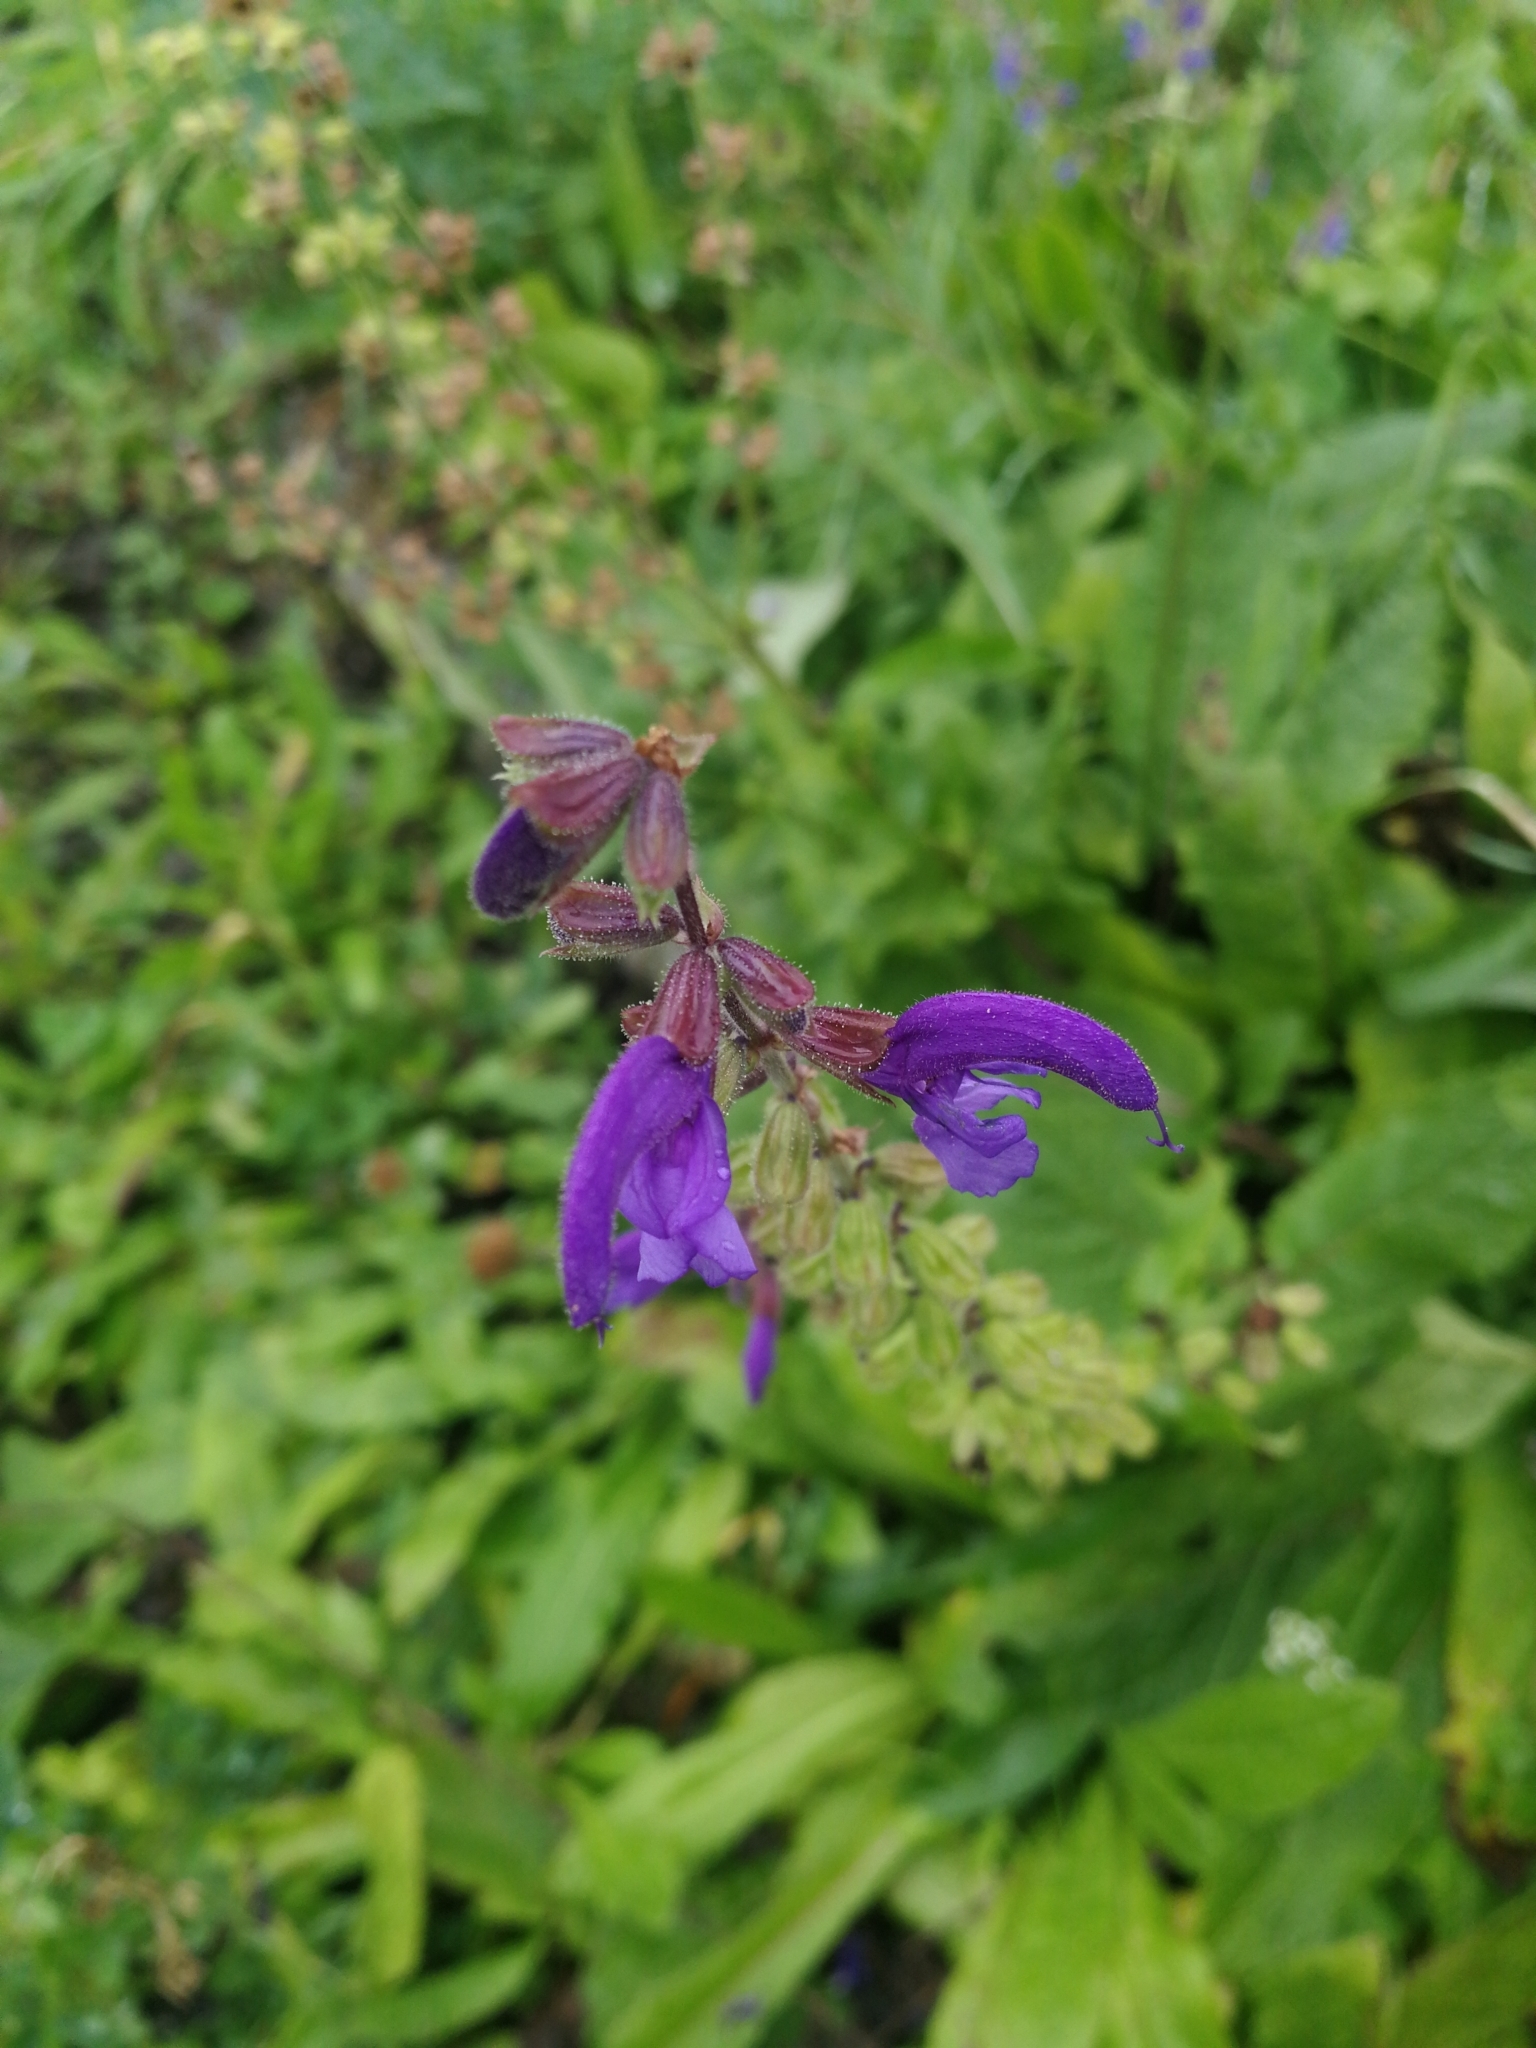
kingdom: Plantae
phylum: Tracheophyta
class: Magnoliopsida
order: Lamiales
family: Lamiaceae
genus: Salvia
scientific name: Salvia pratensis
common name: Meadow sage
